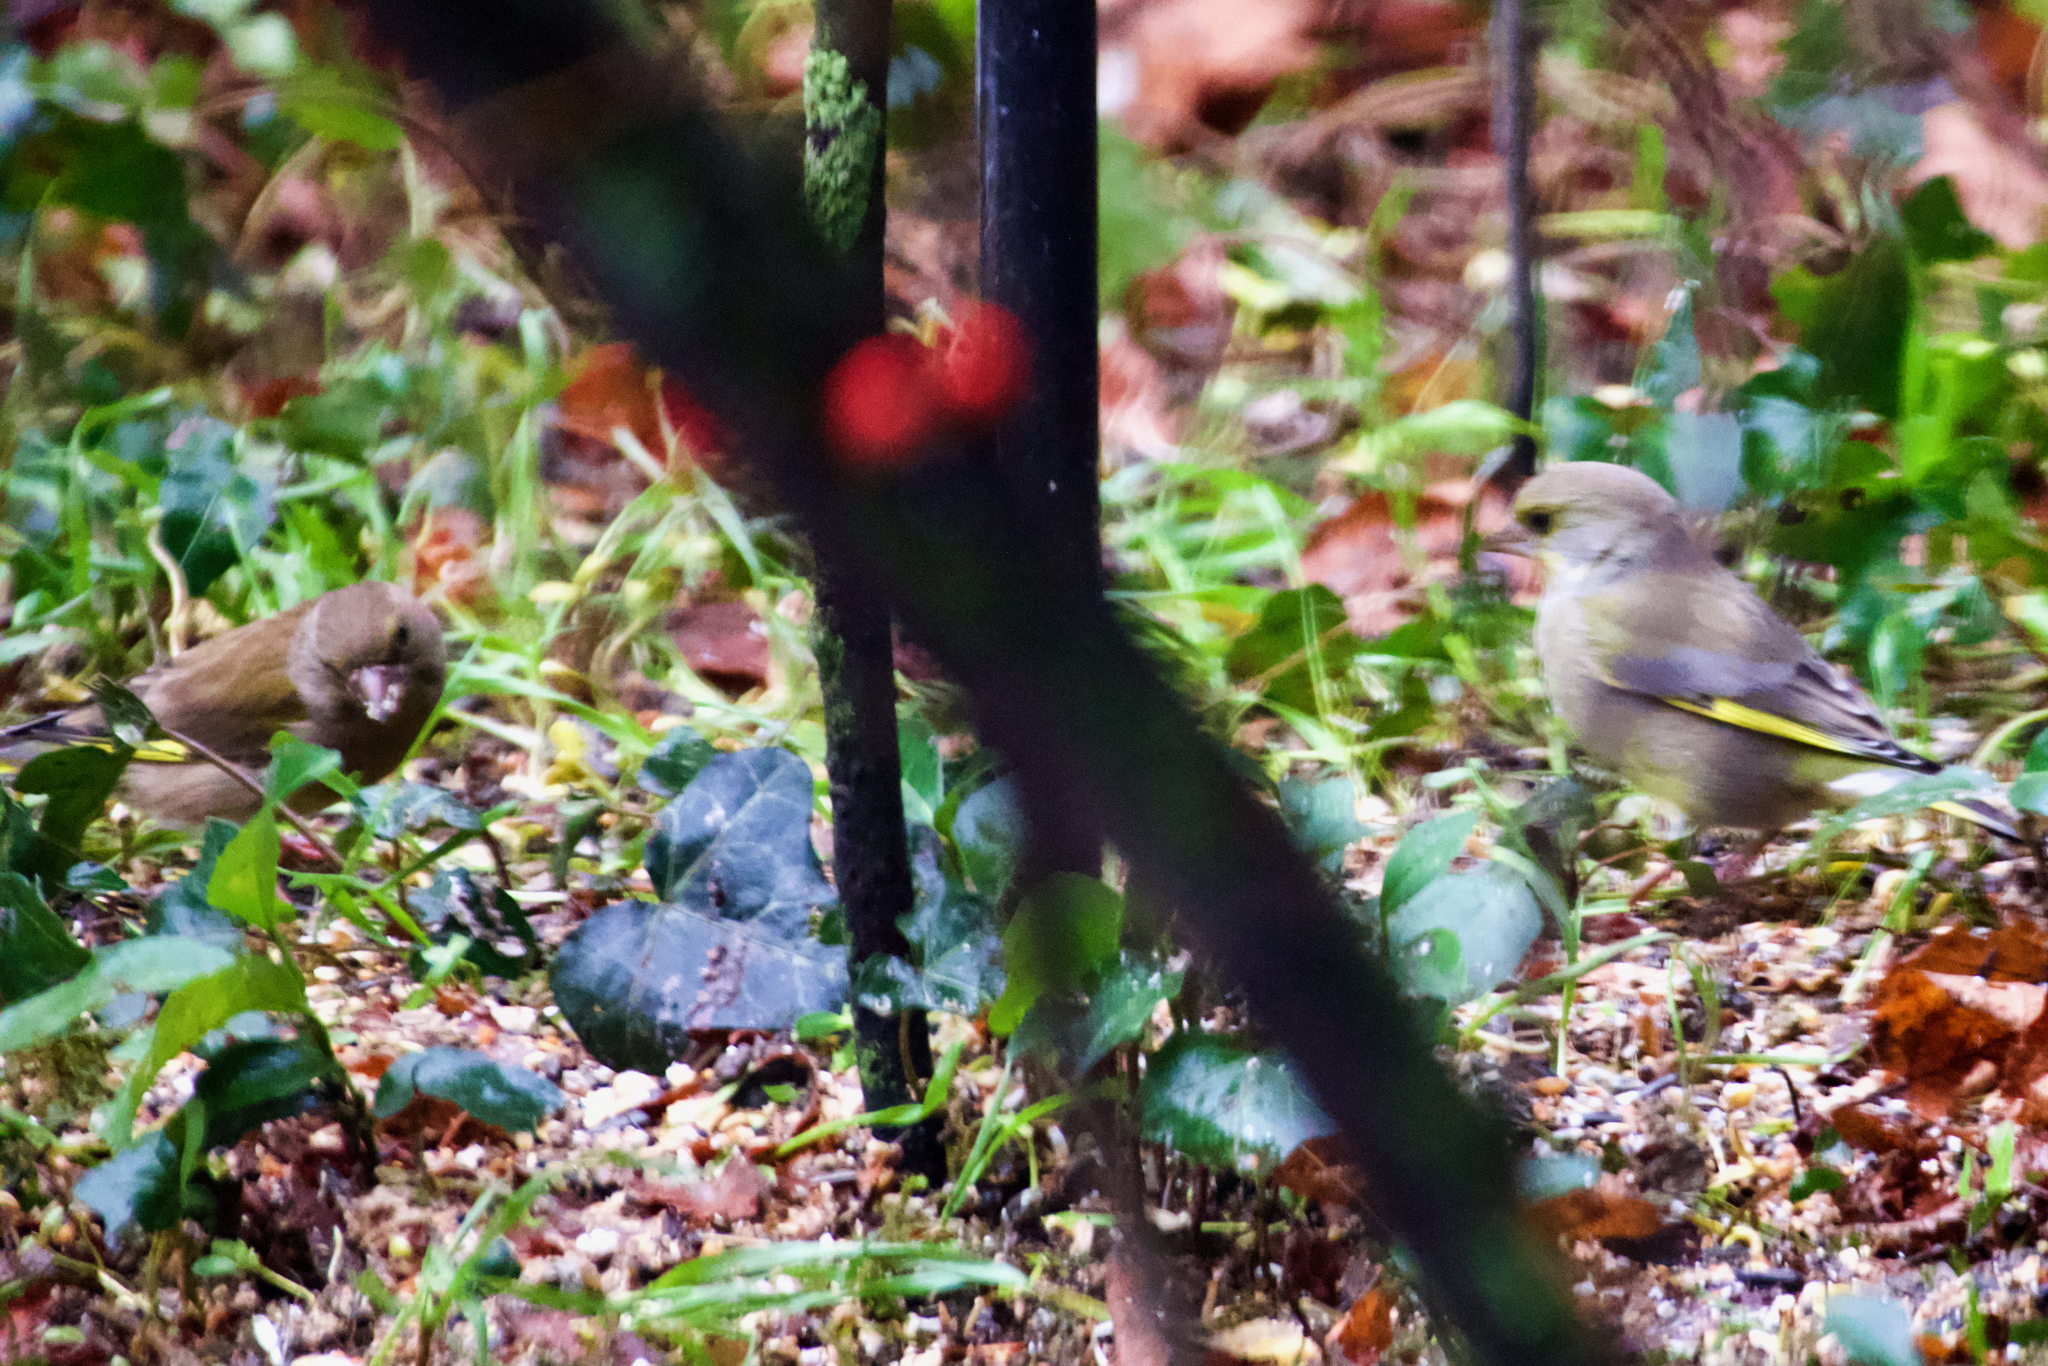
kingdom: Plantae
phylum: Tracheophyta
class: Liliopsida
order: Poales
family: Poaceae
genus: Chloris
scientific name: Chloris chloris
